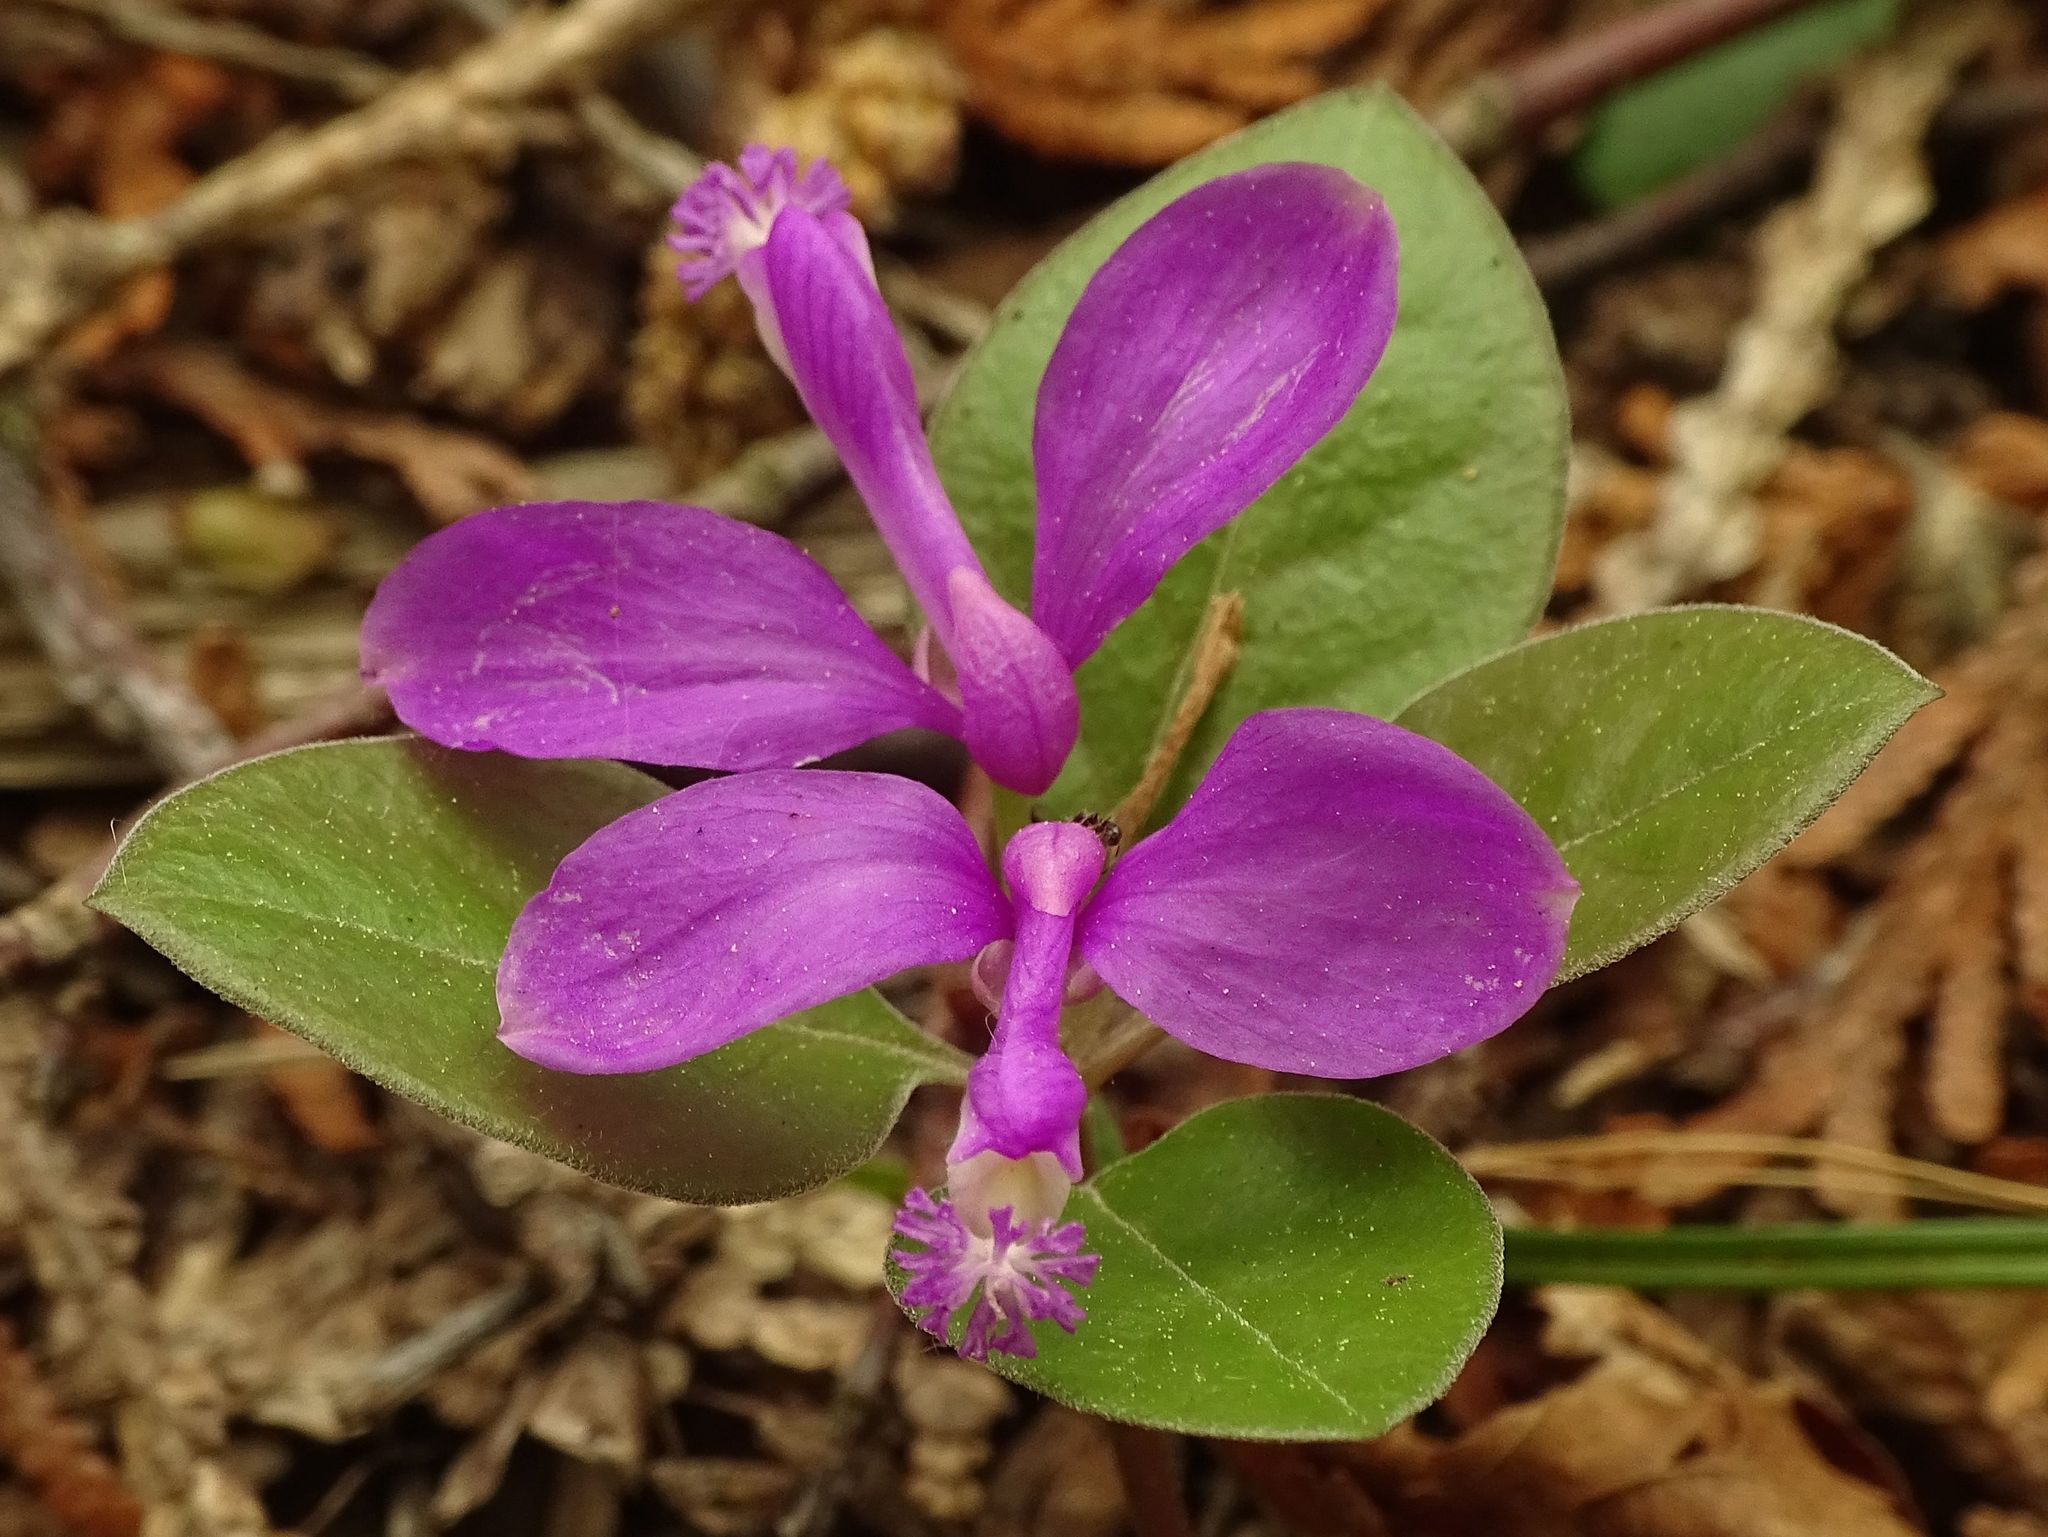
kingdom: Plantae
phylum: Tracheophyta
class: Magnoliopsida
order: Fabales
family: Polygalaceae
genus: Polygaloides
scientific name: Polygaloides paucifolia
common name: Bird-on-the-wing
